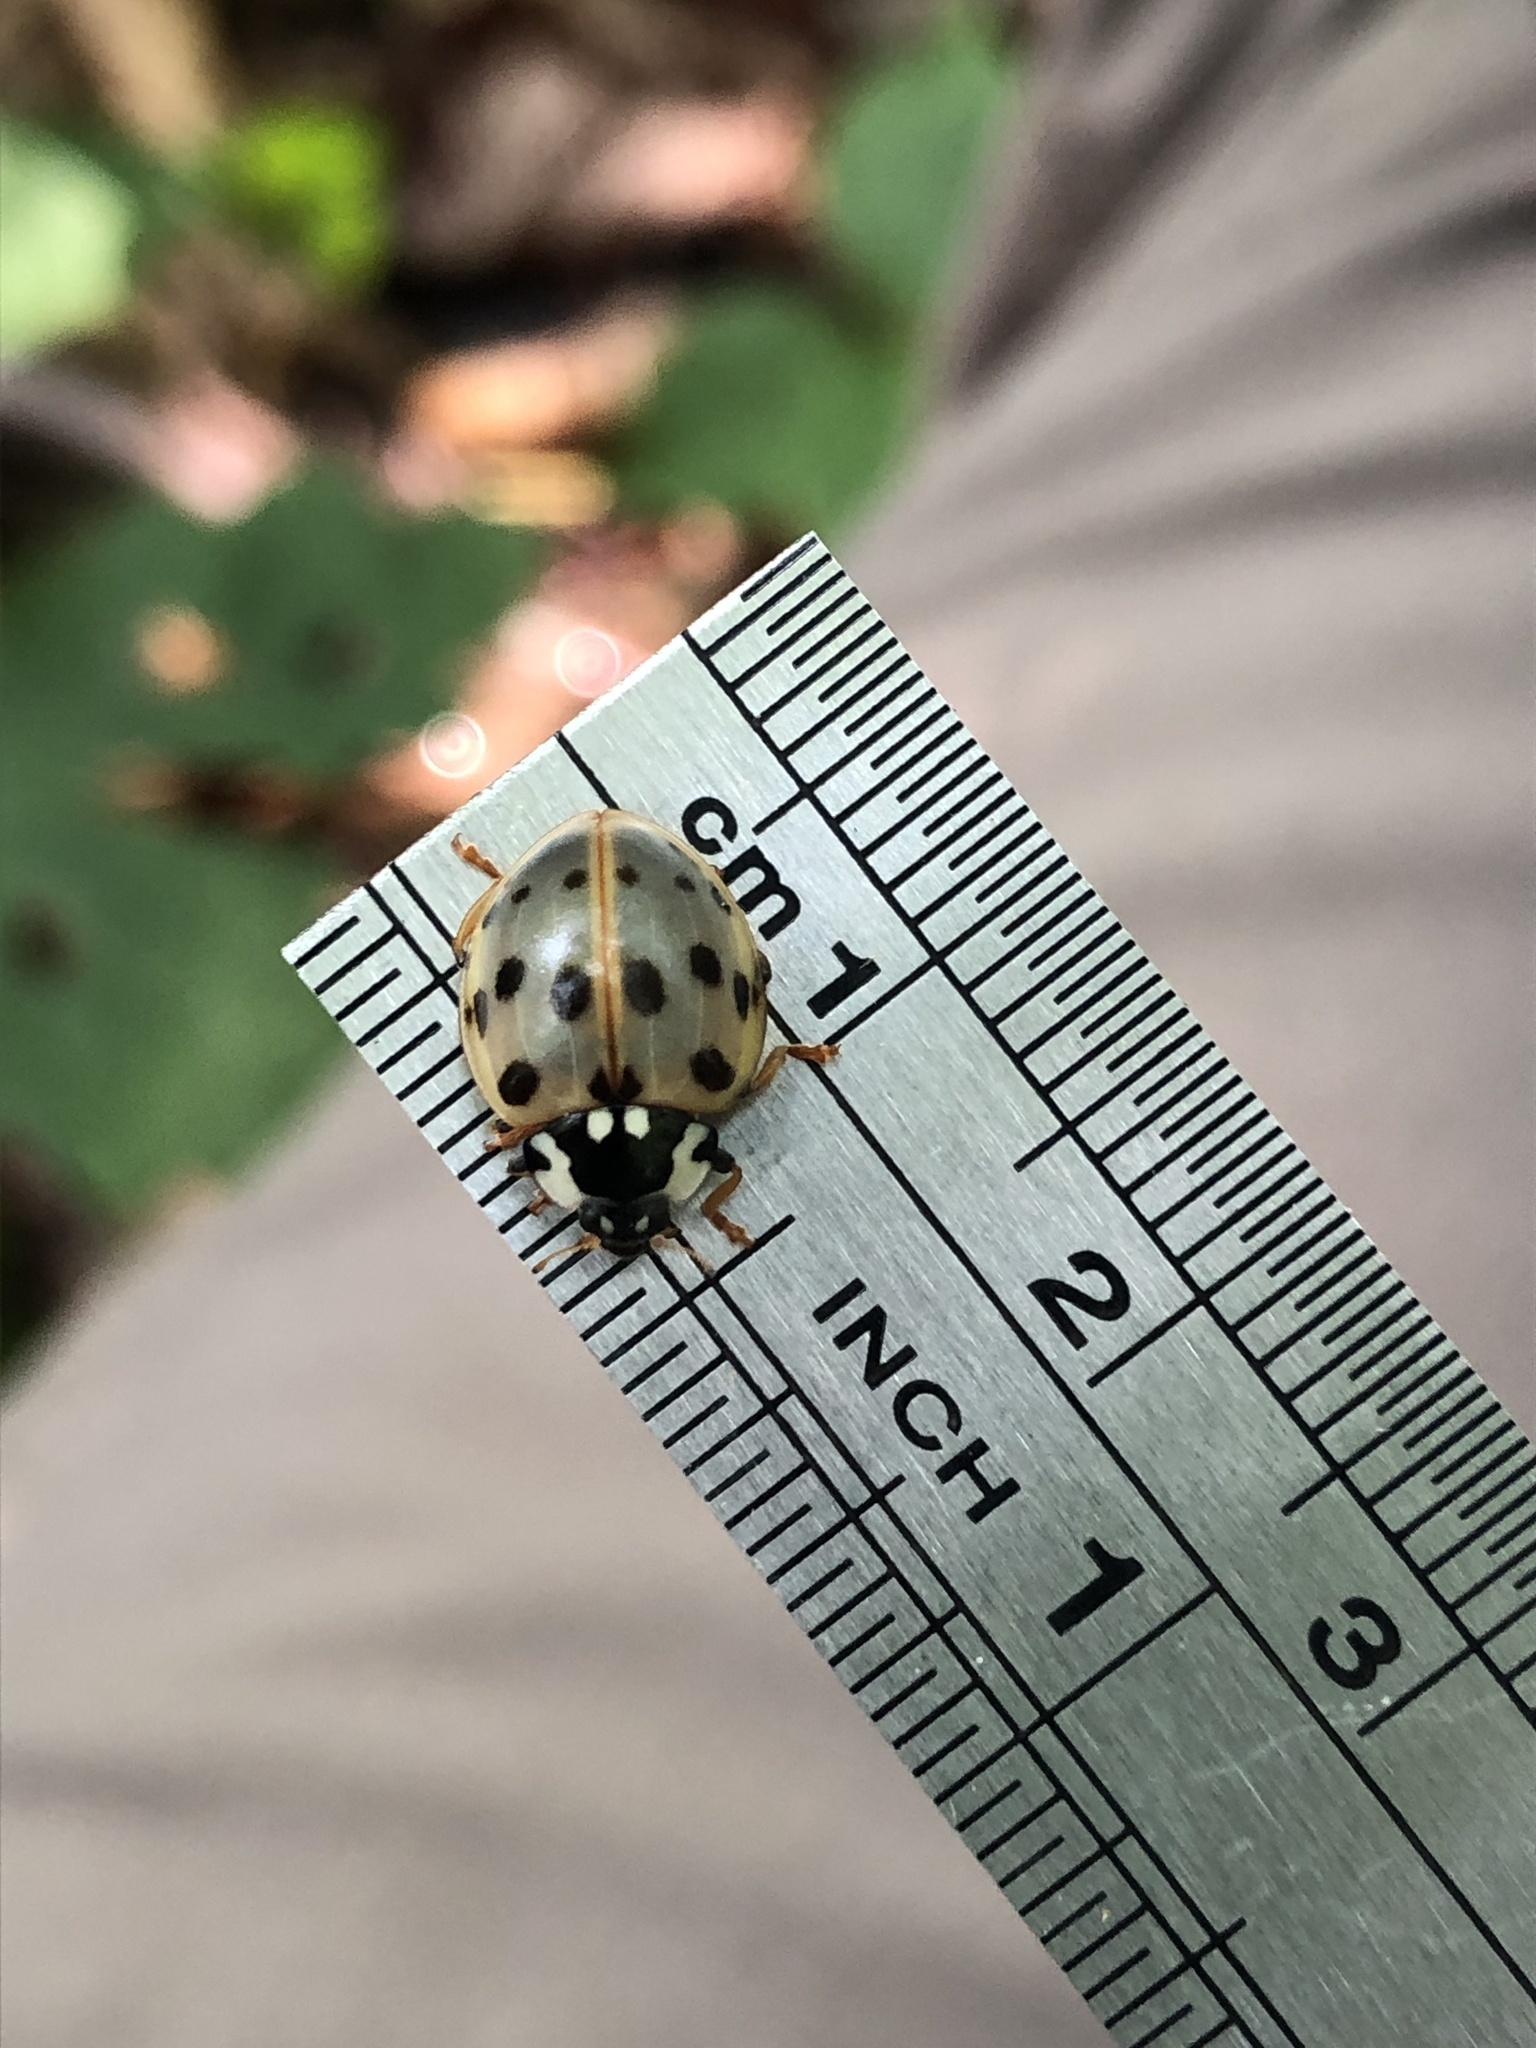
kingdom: Animalia
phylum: Arthropoda
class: Insecta
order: Coleoptera
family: Coccinellidae
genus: Anatis
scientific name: Anatis labiculata
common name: Fifteen-spotted lady beetle
